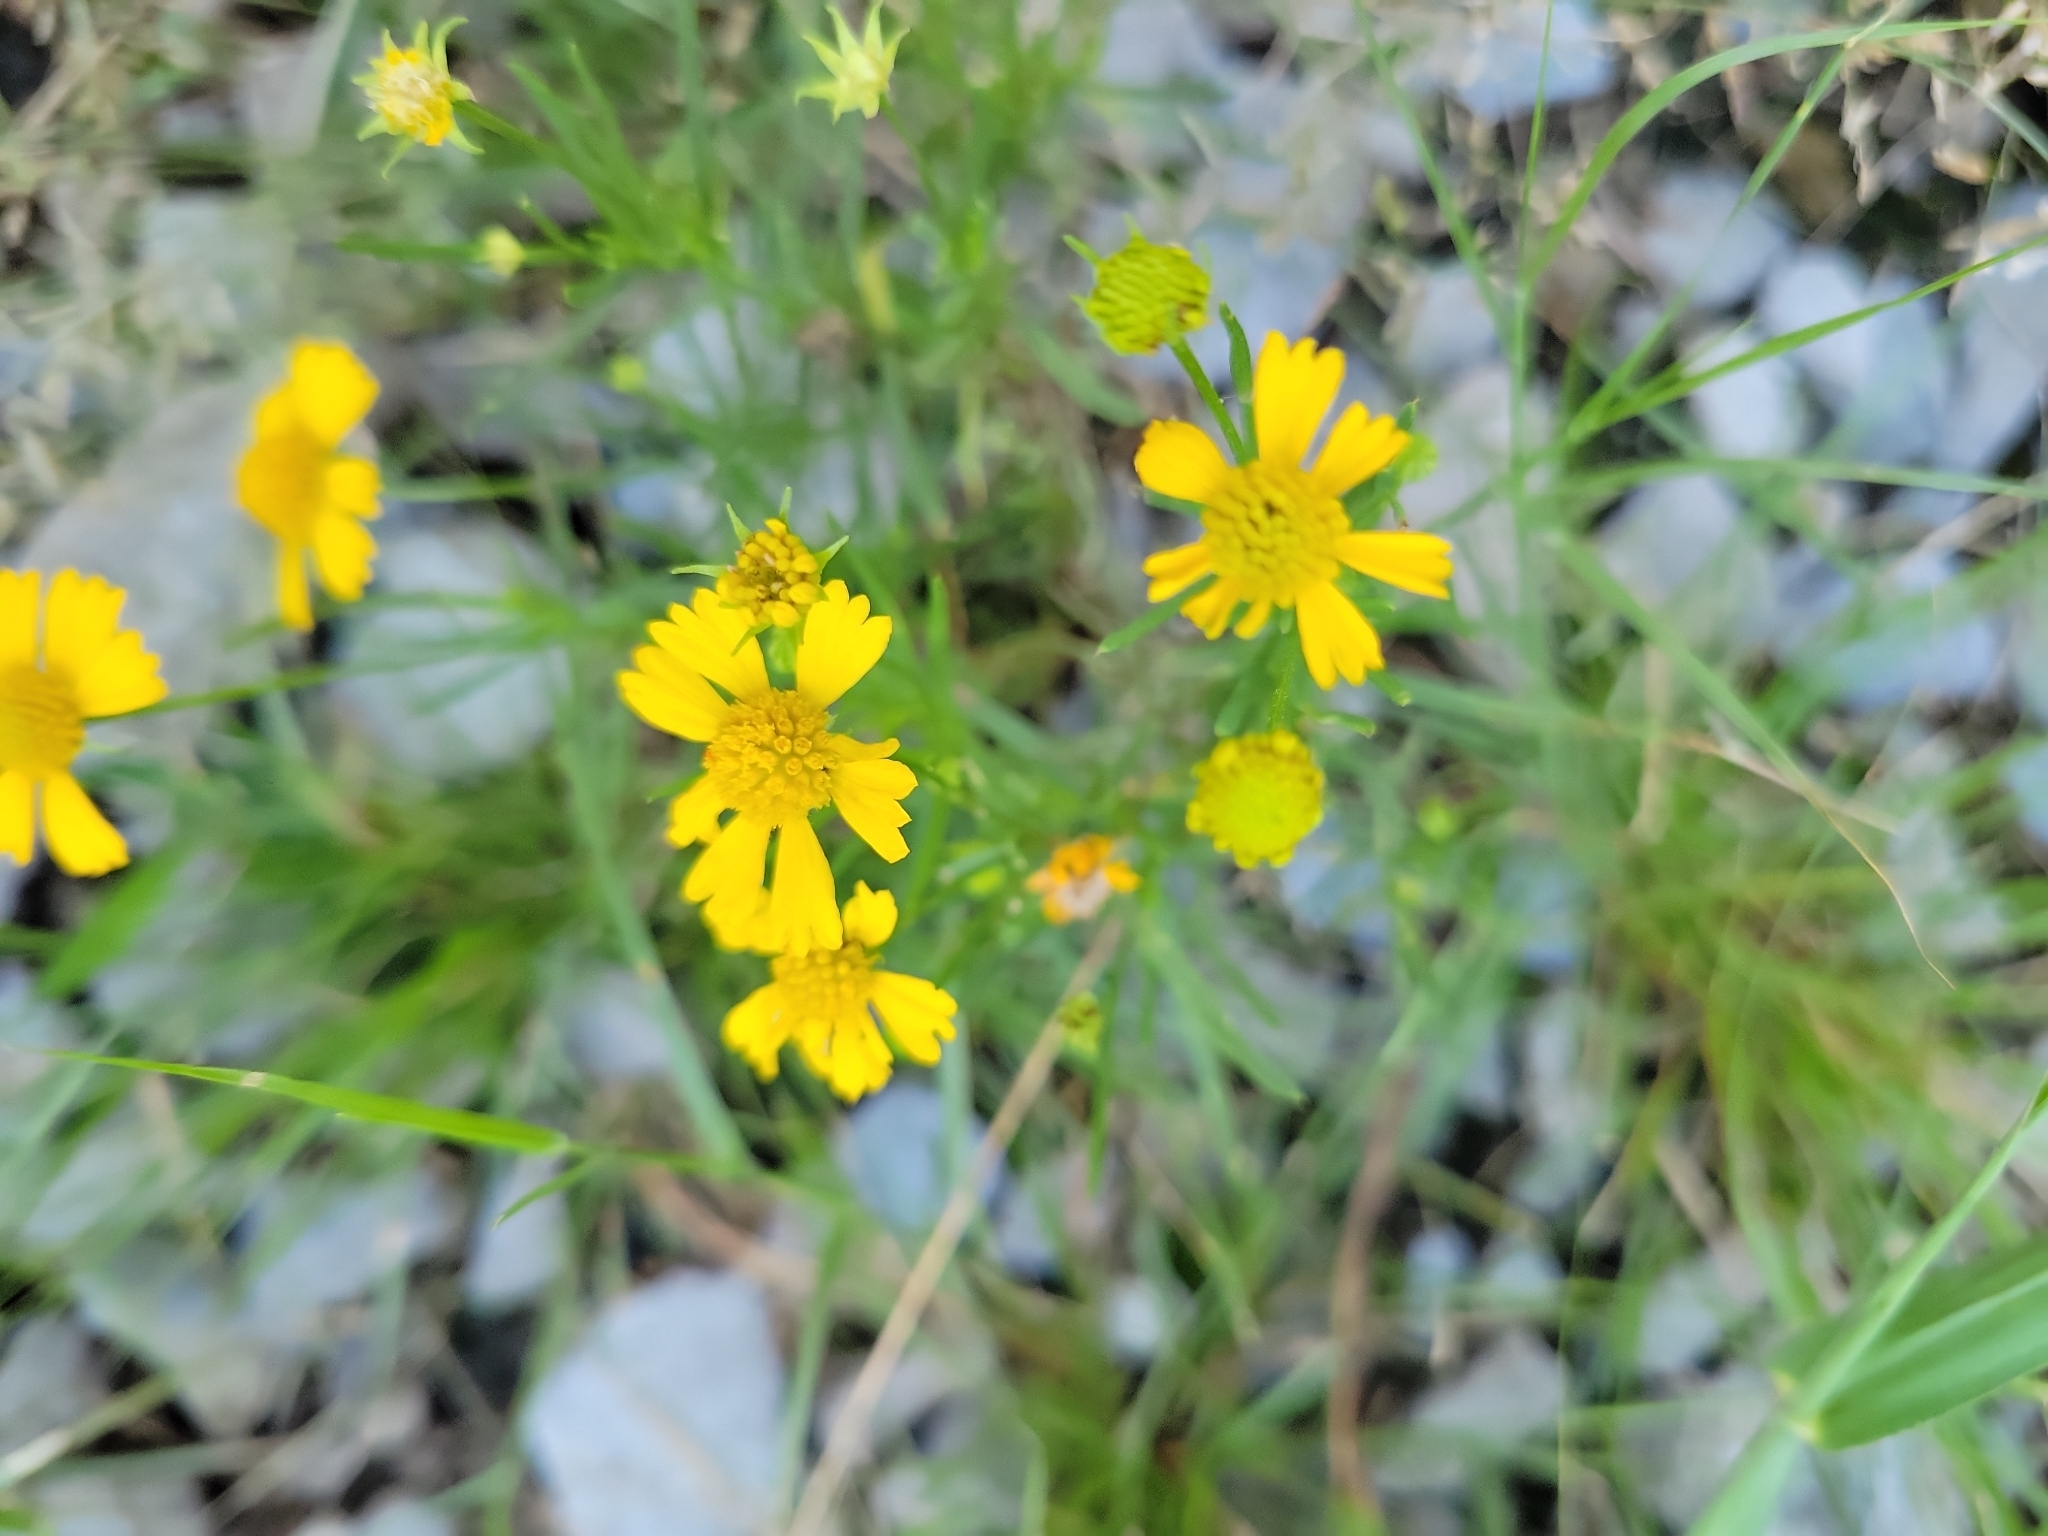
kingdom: Plantae
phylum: Tracheophyta
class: Magnoliopsida
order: Asterales
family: Asteraceae
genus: Helenium
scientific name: Helenium amarum
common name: Bitter sneezeweed
